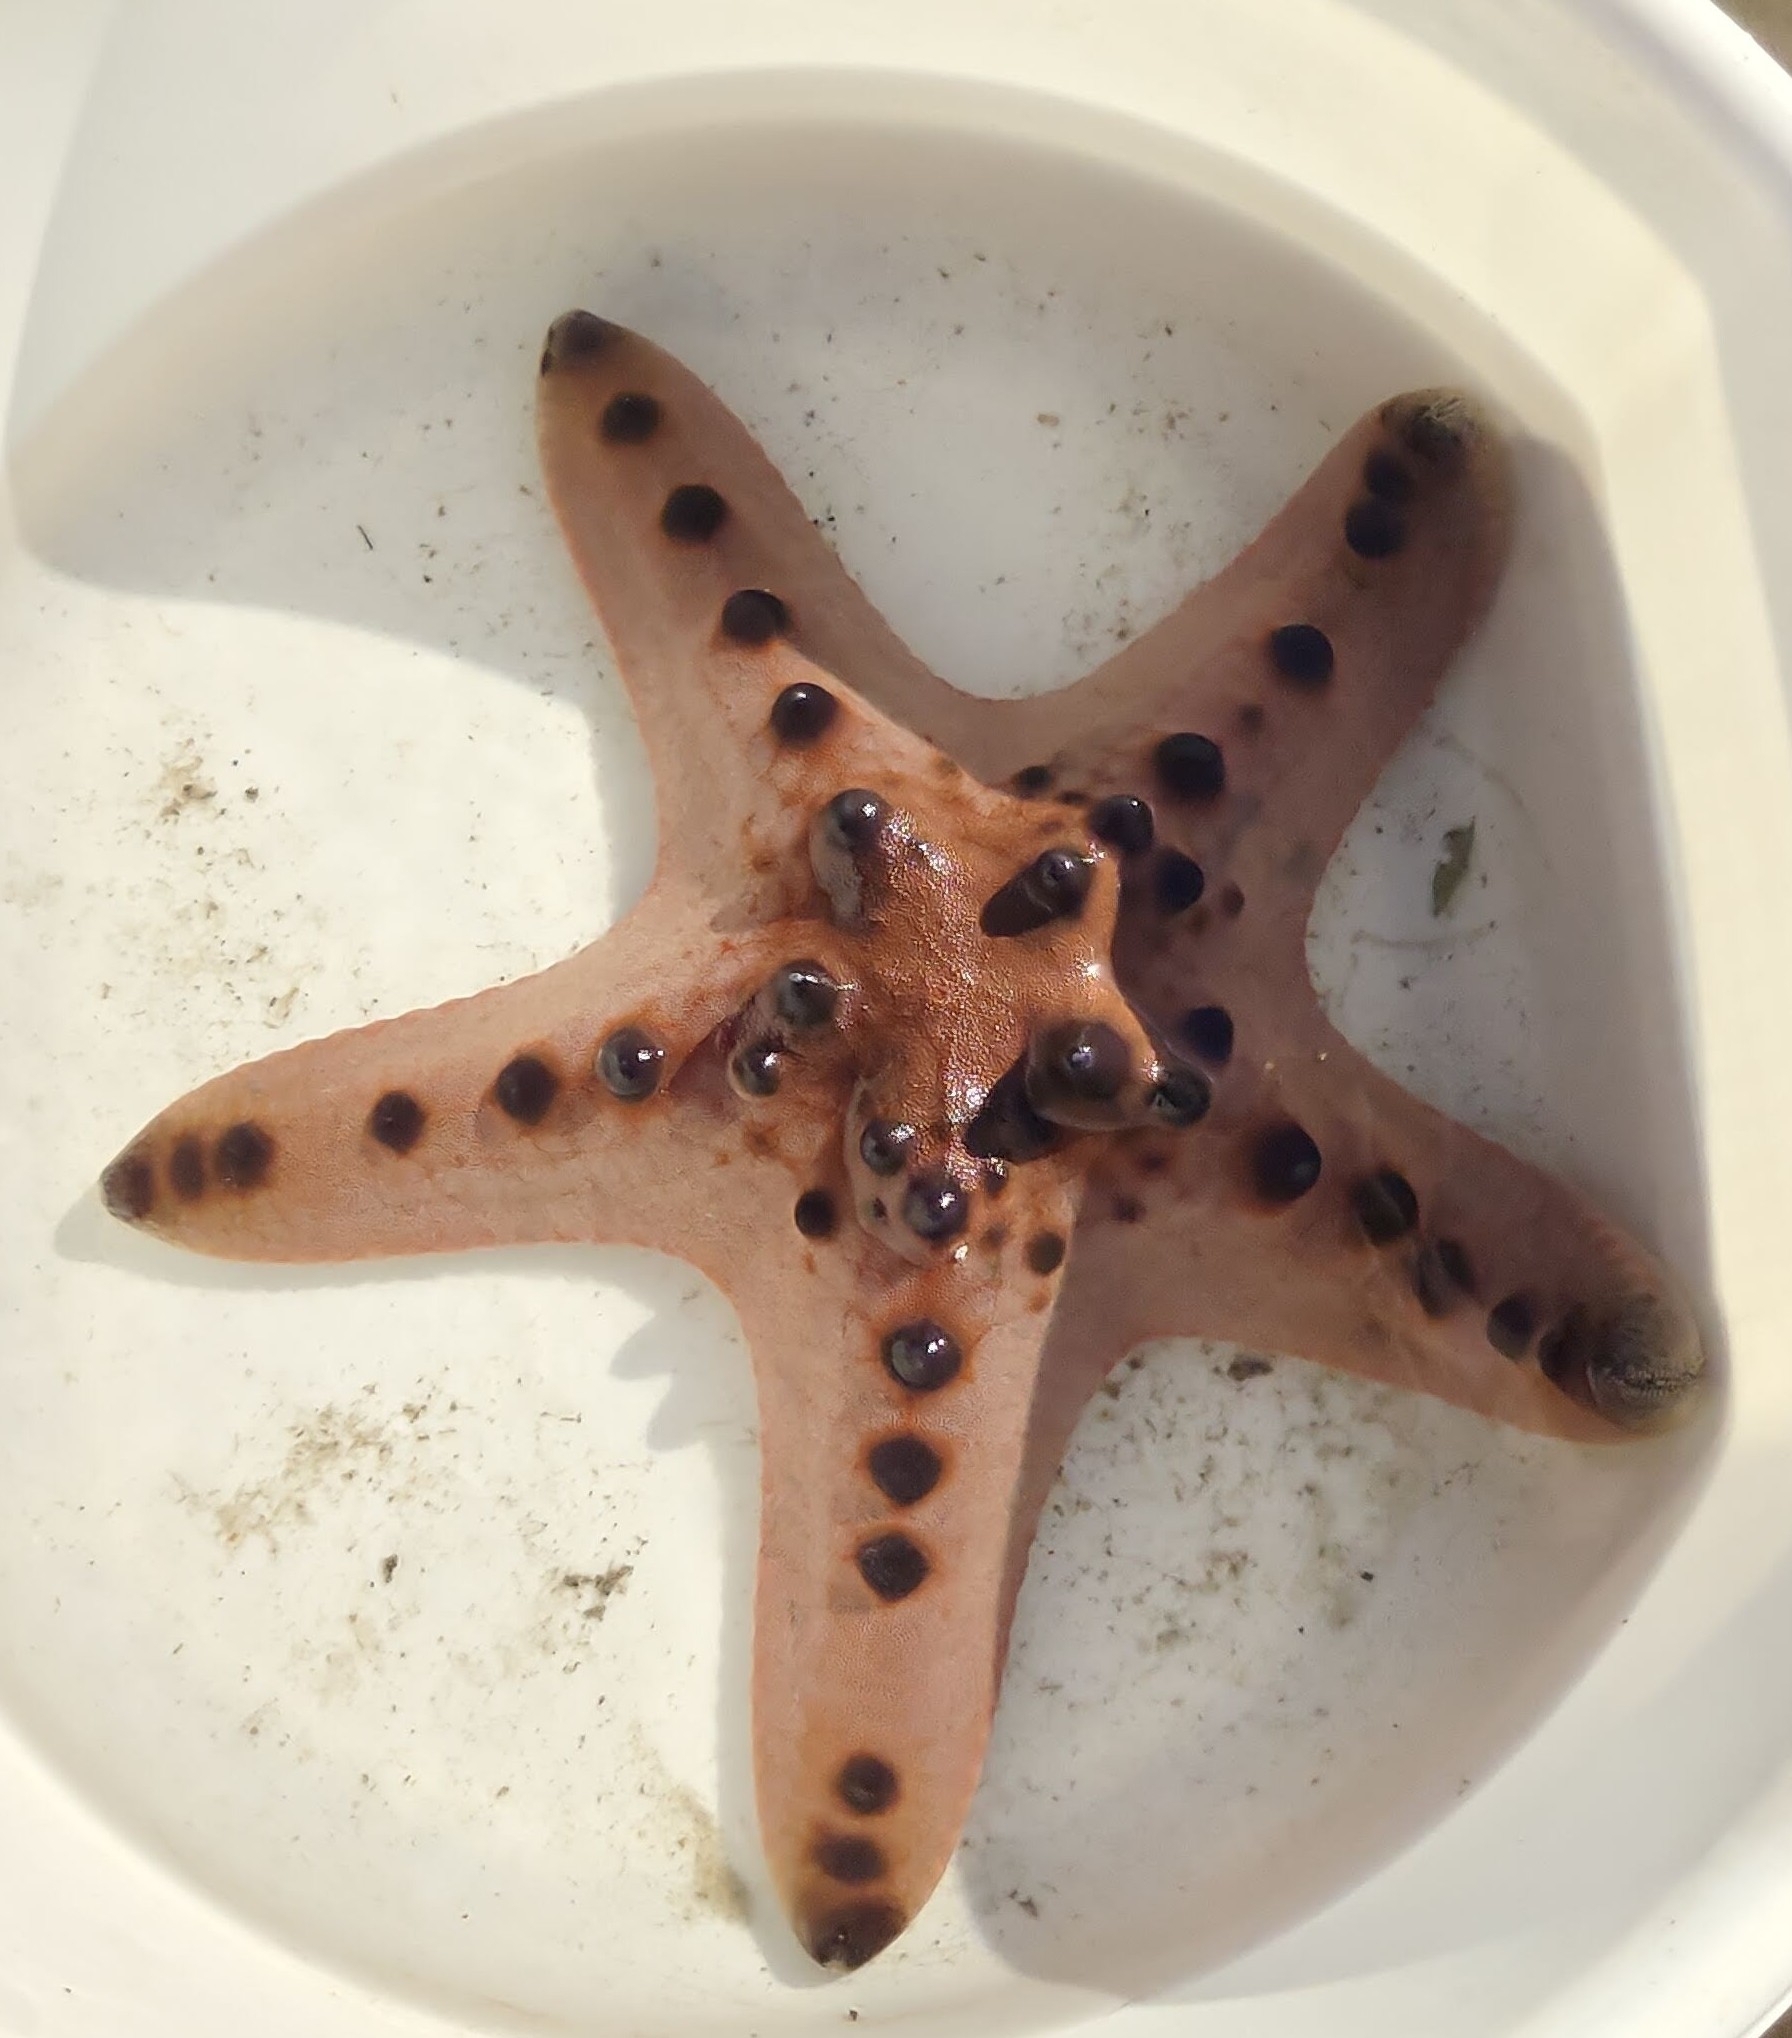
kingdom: Animalia
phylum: Echinodermata
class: Asteroidea
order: Valvatida
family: Oreasteridae
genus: Protoreaster
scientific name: Protoreaster nodosus
